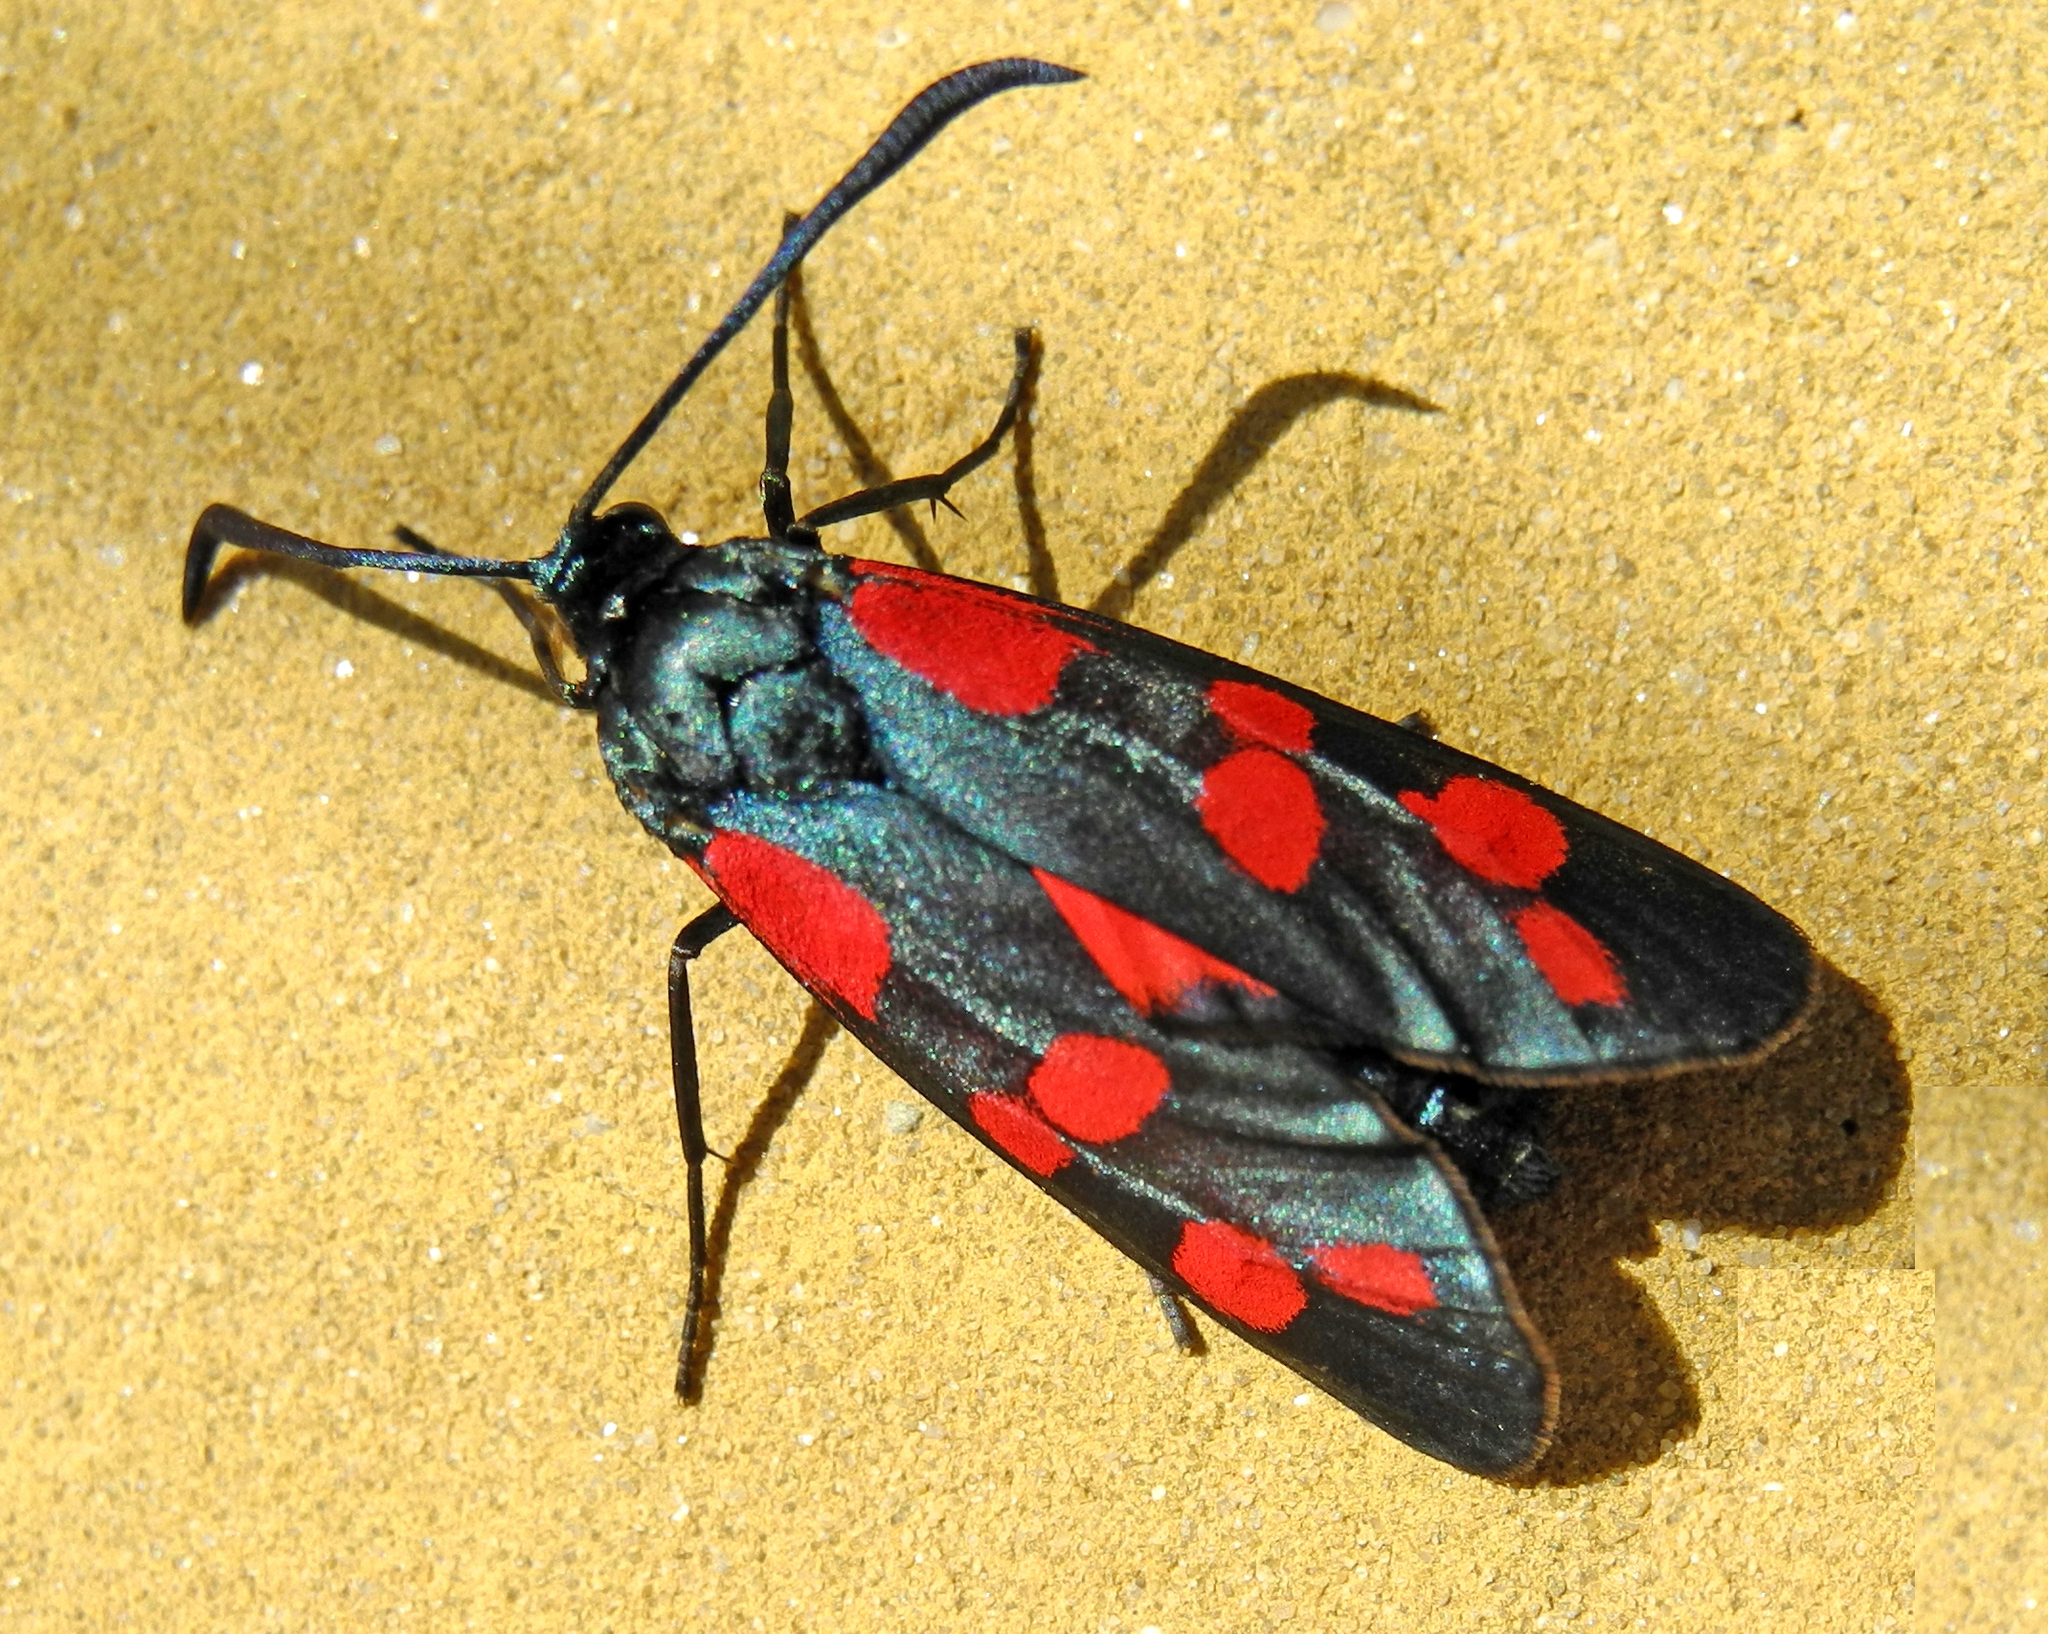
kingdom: Animalia
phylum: Arthropoda
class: Insecta
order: Lepidoptera
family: Zygaenidae
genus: Zygaena
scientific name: Zygaena filipendulae
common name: Six-spot burnet
